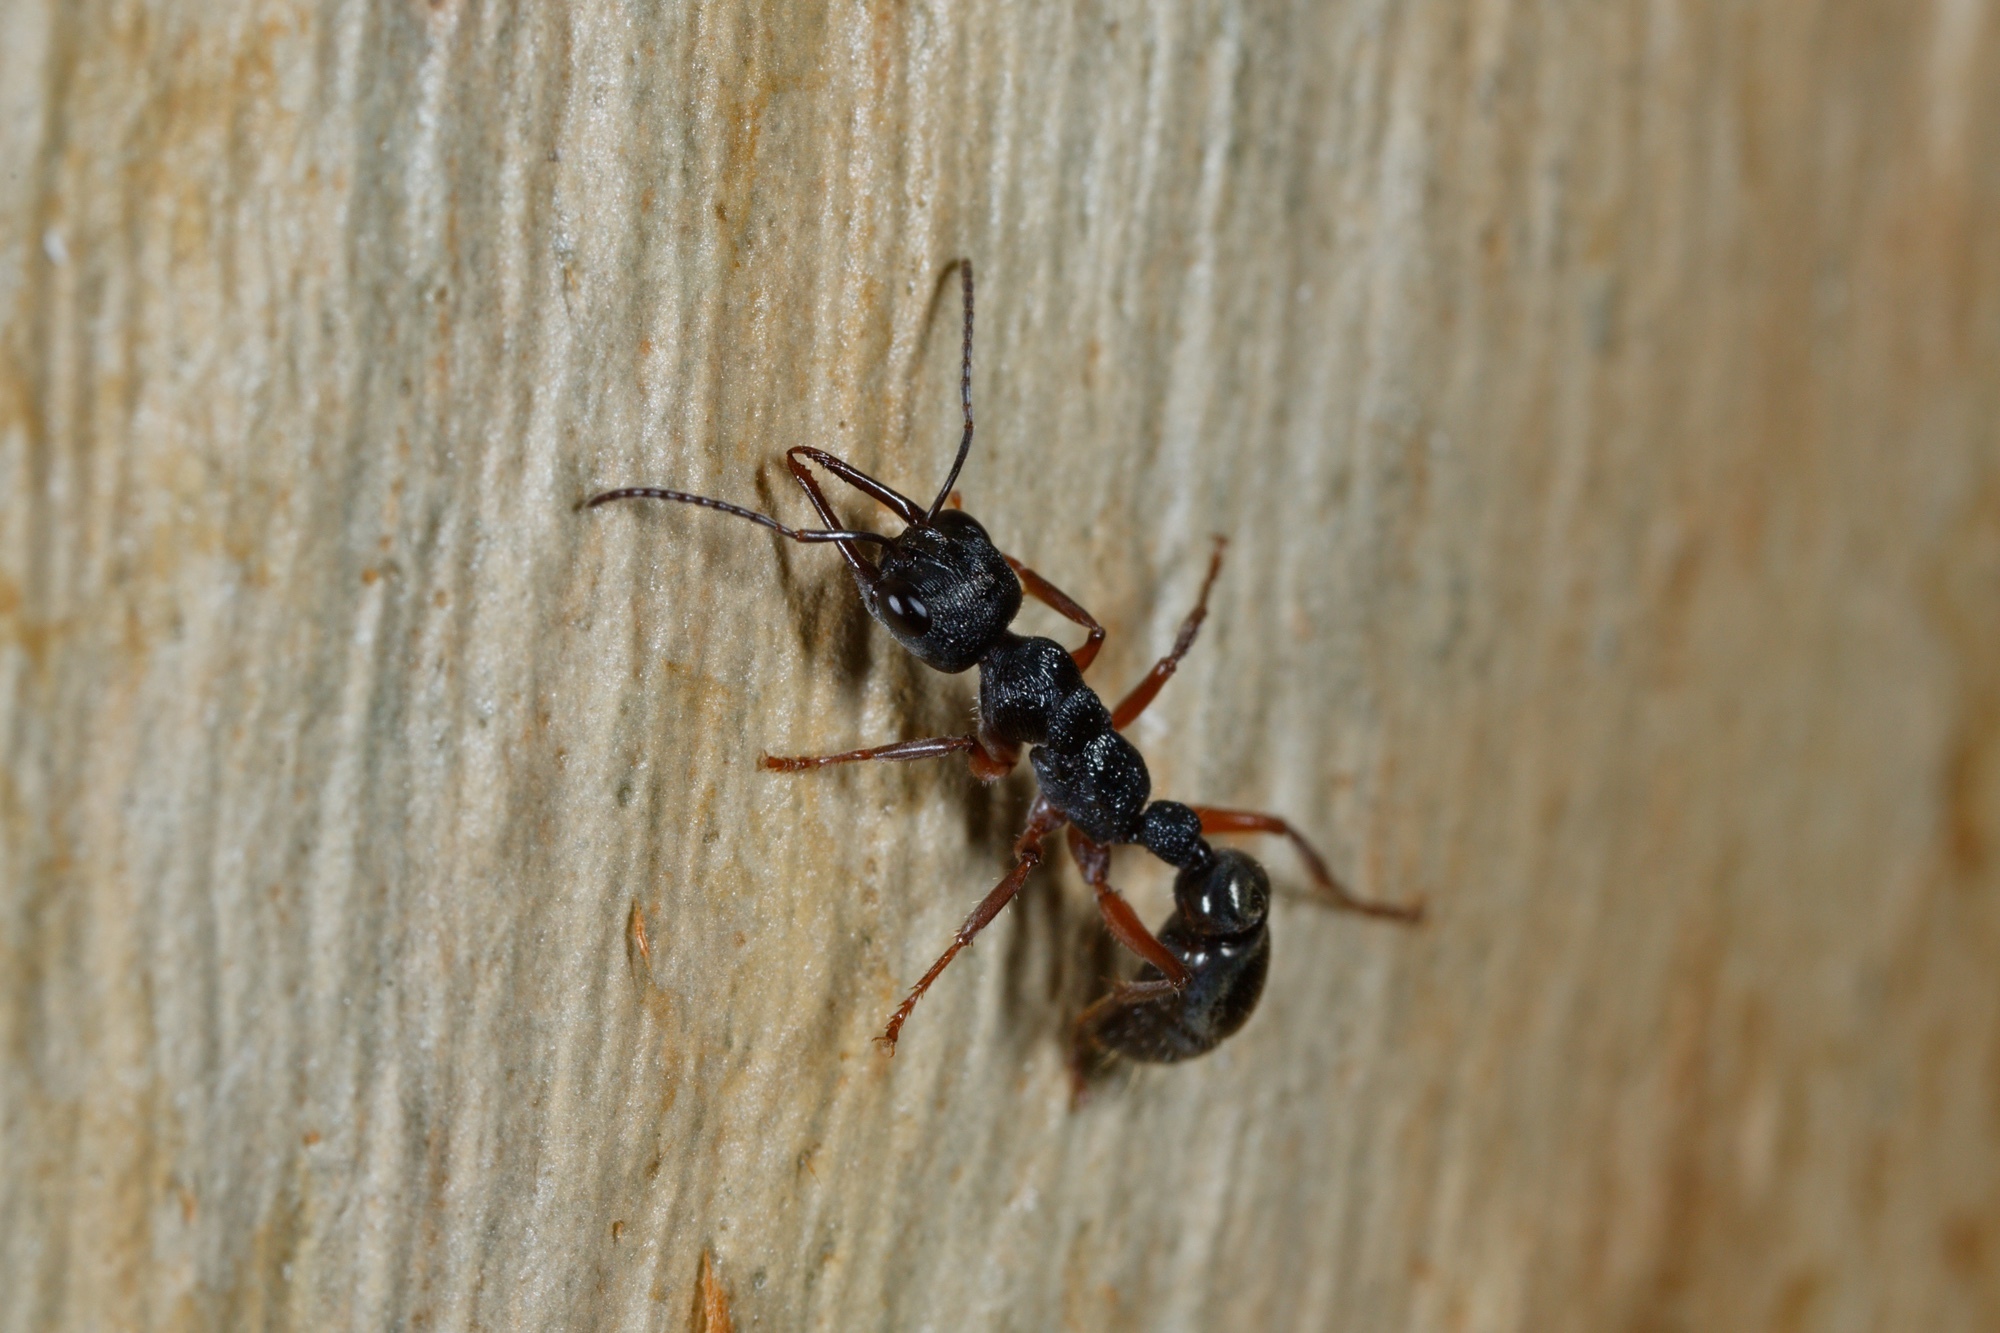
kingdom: Animalia
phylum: Arthropoda
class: Insecta
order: Hymenoptera
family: Formicidae
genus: Myrmecia
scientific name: Myrmecia fulvipes
